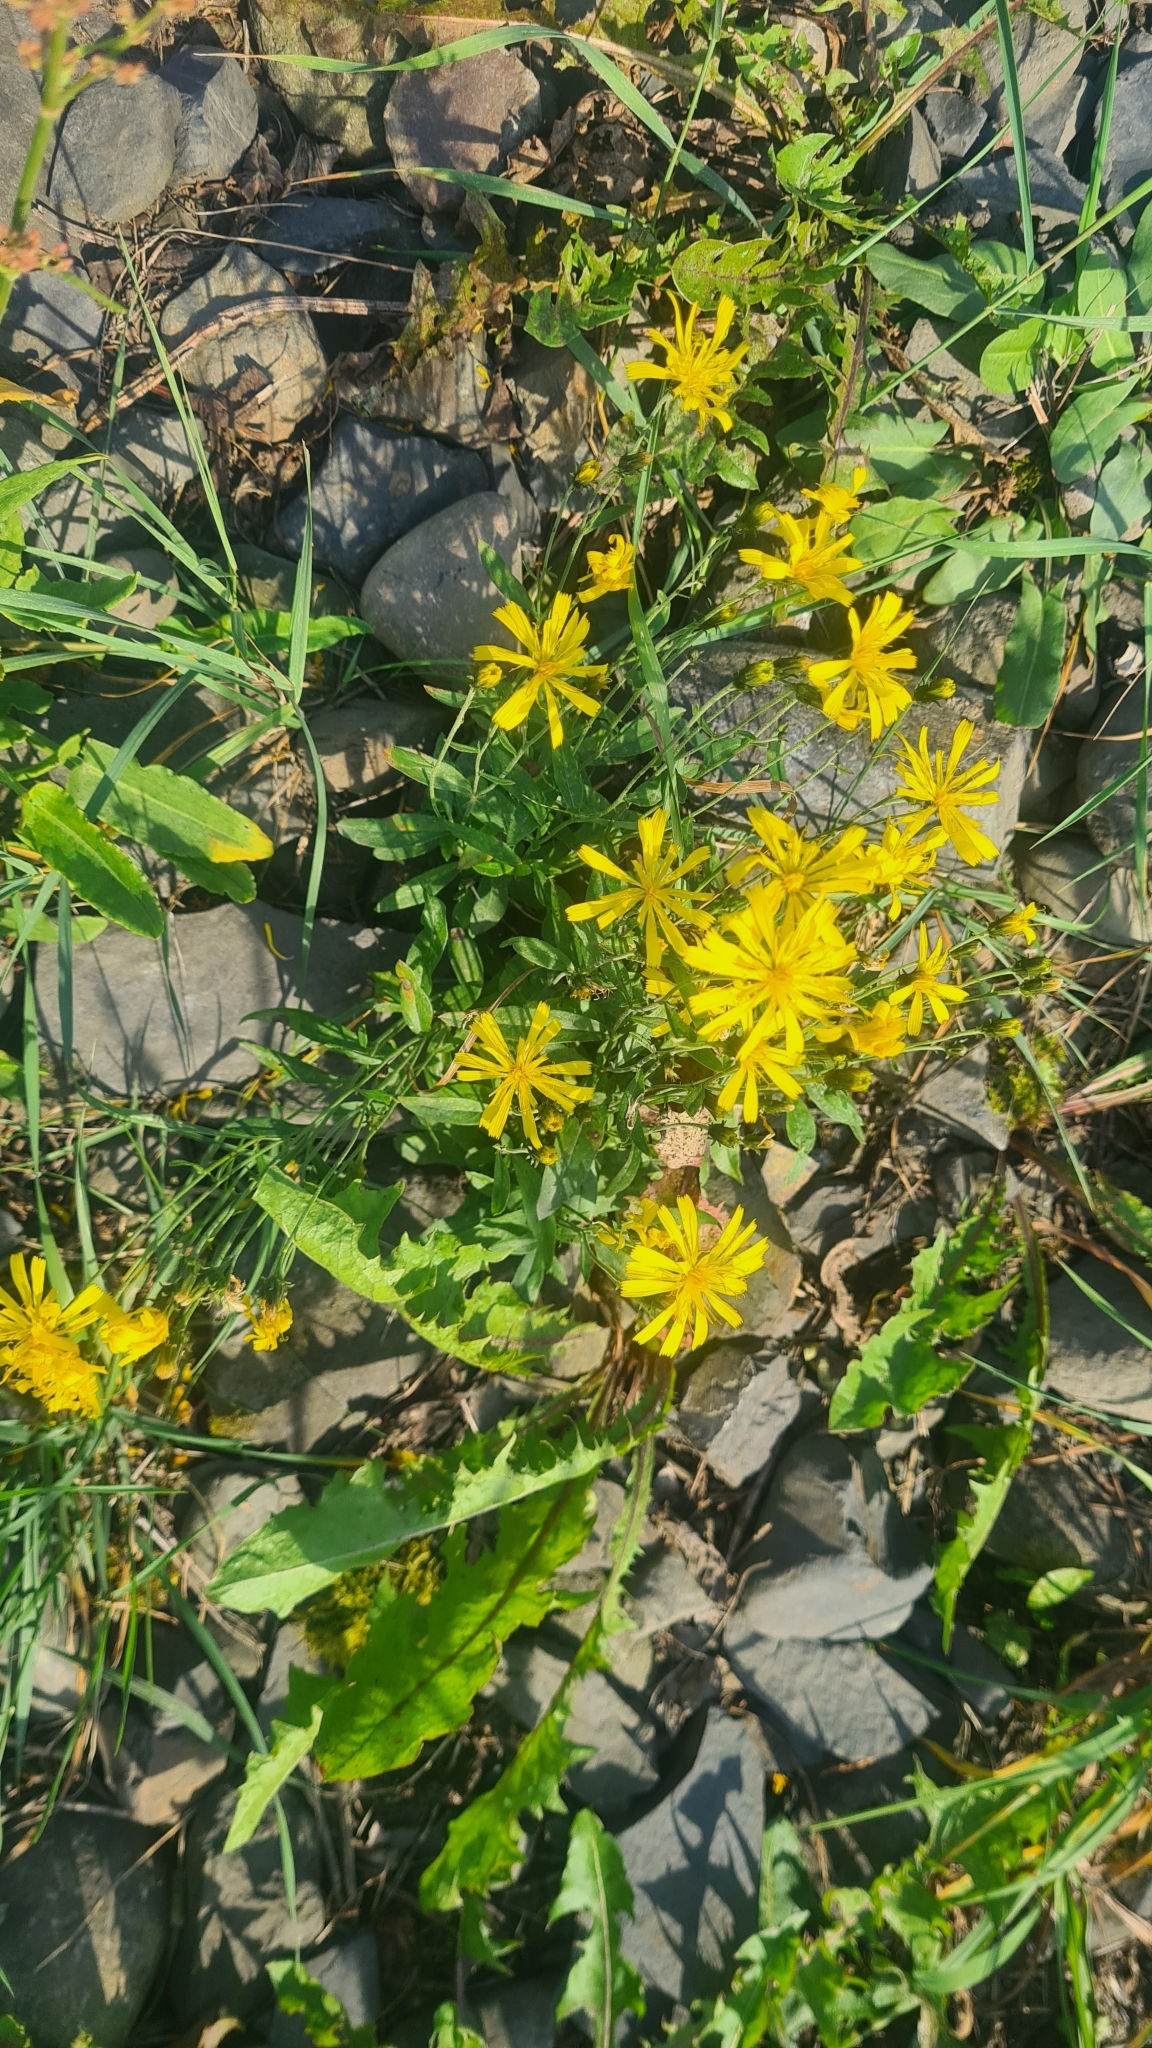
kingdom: Plantae
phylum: Tracheophyta
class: Magnoliopsida
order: Asterales
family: Asteraceae
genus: Hieracium
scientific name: Hieracium umbellatum
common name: Northern hawkweed
